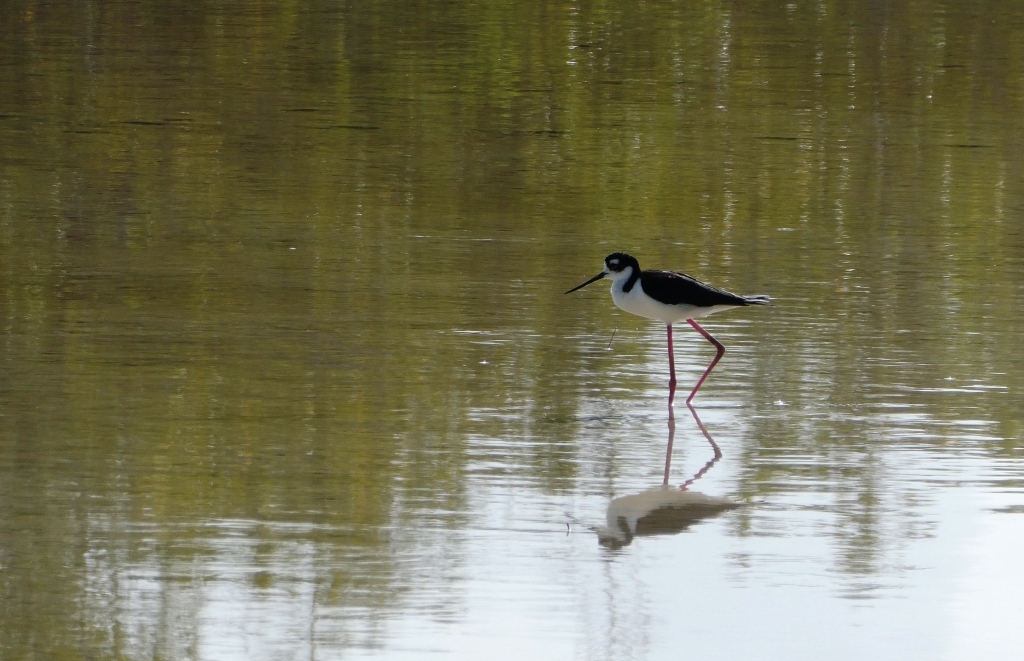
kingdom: Animalia
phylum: Chordata
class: Aves
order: Charadriiformes
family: Recurvirostridae
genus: Himantopus
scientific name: Himantopus mexicanus
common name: Black-necked stilt
